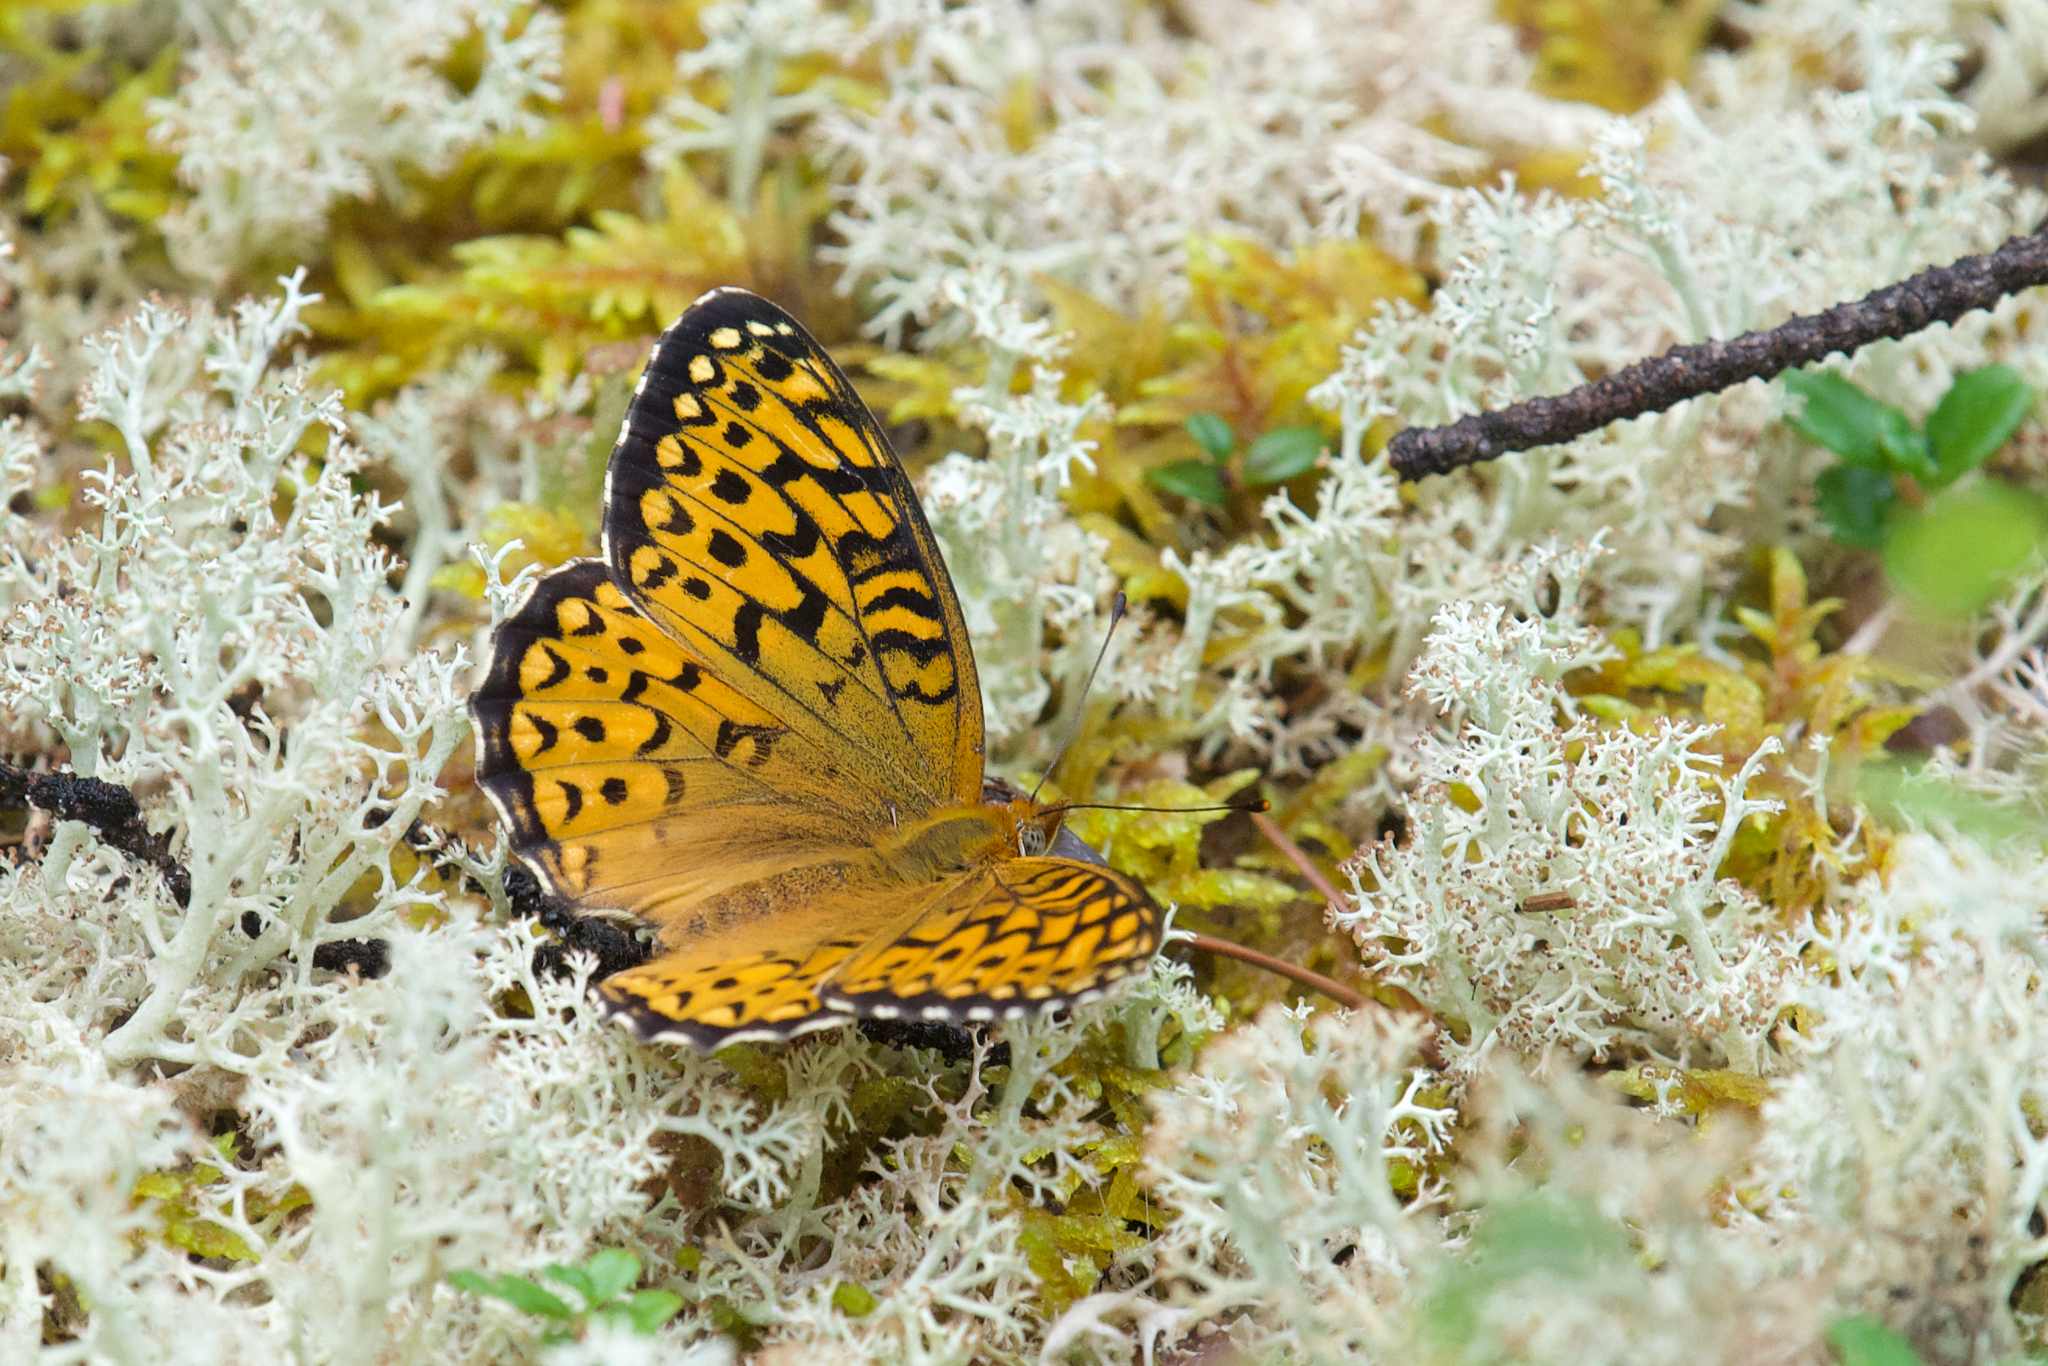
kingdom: Animalia
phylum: Arthropoda
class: Insecta
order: Lepidoptera
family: Nymphalidae
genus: Speyeria
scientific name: Speyeria atlantis
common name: Atlantis fritillary
